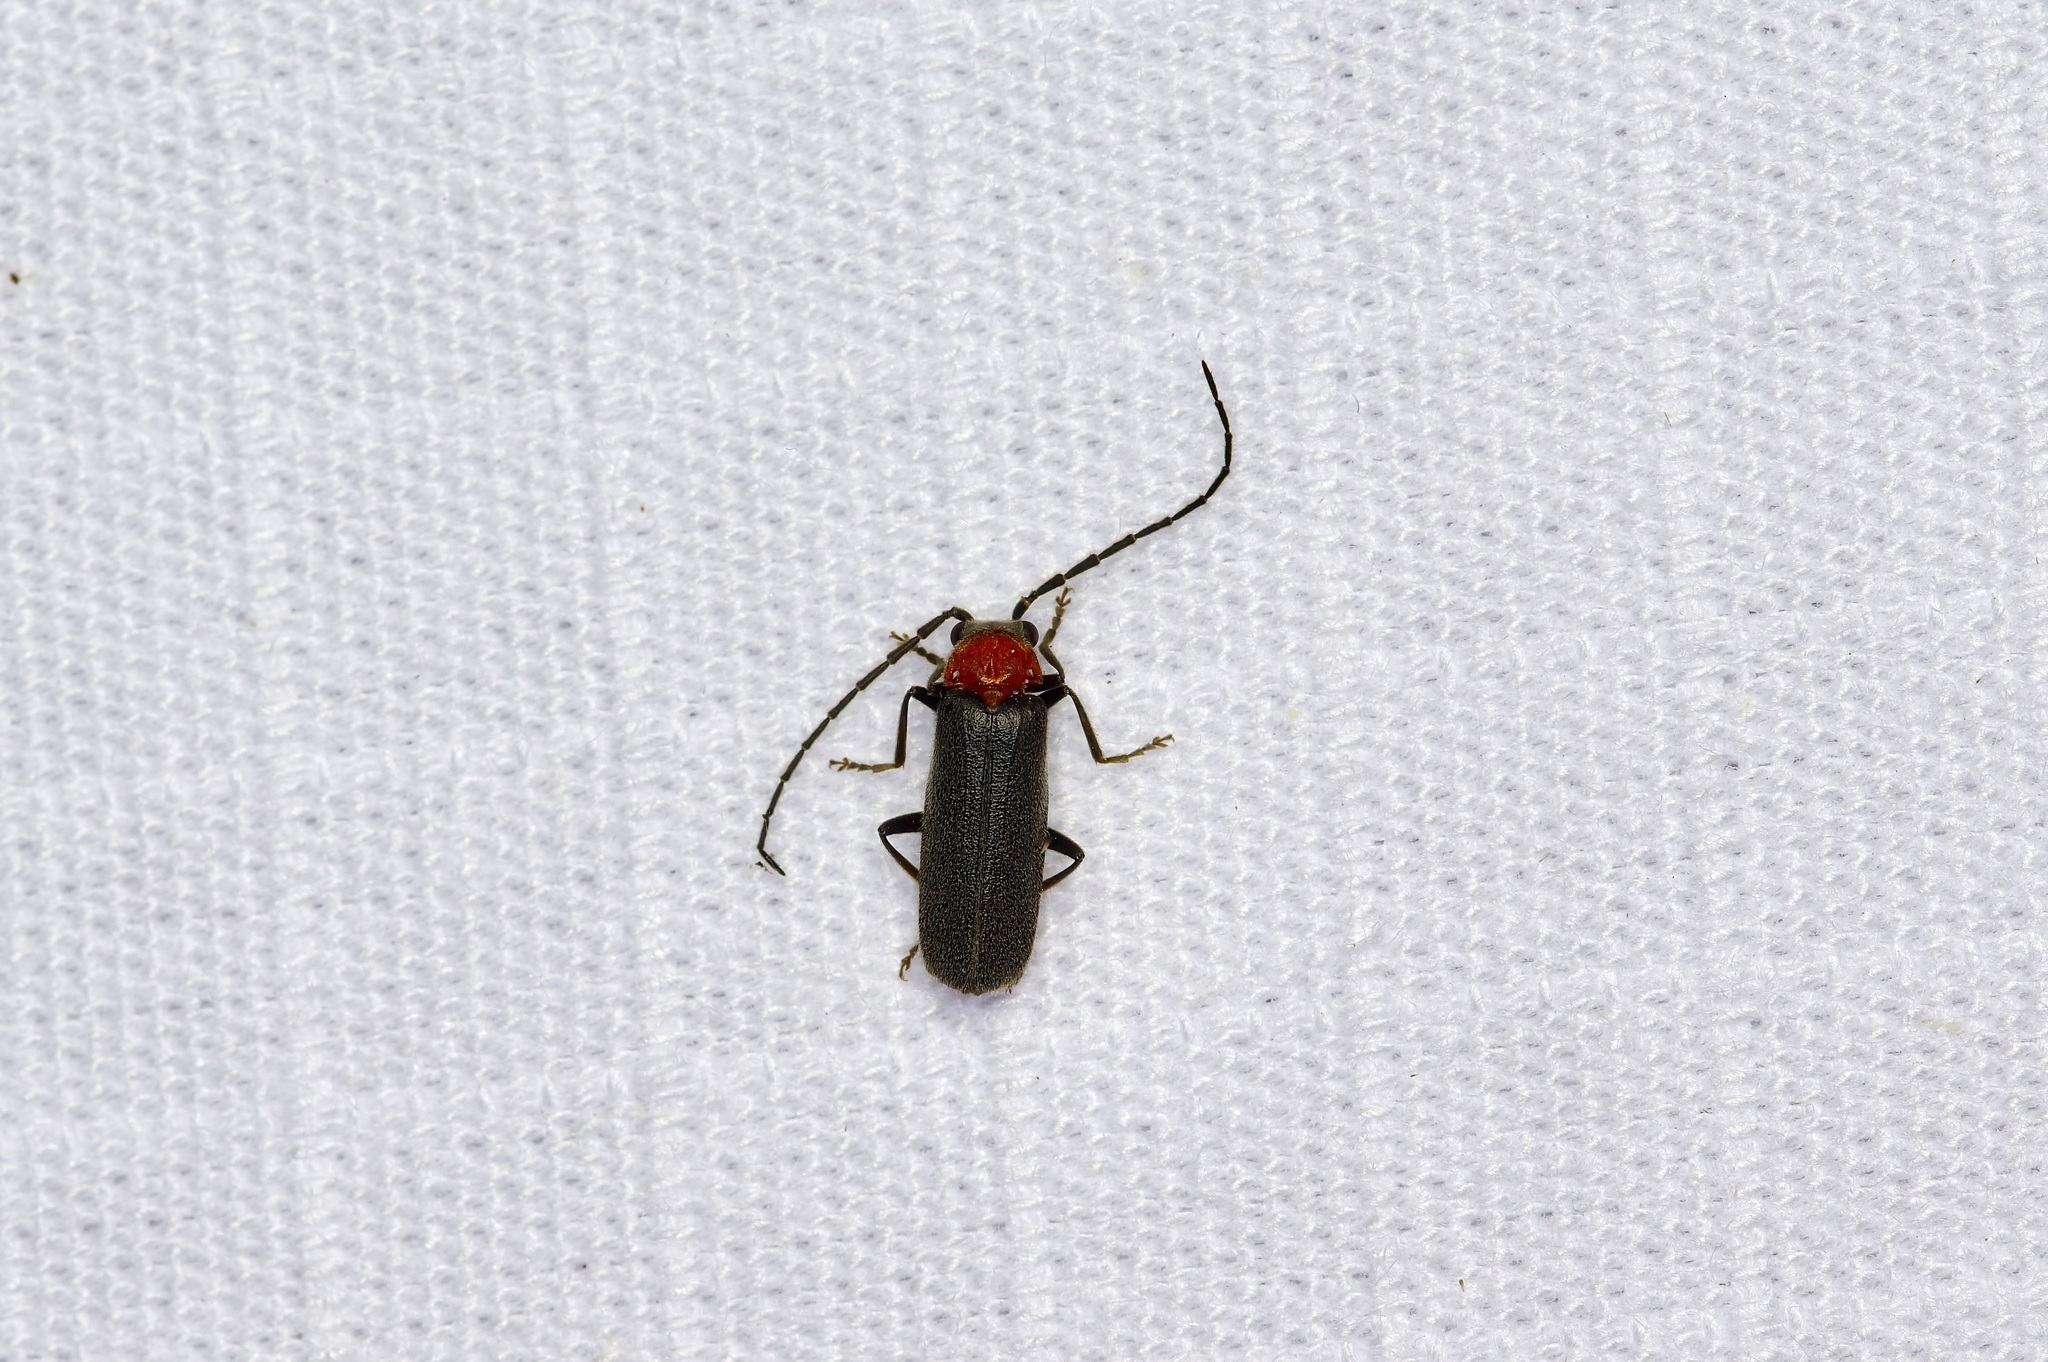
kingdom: Animalia
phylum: Arthropoda
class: Insecta
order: Coleoptera
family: Cantharidae
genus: Ditemnus
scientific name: Ditemnus
